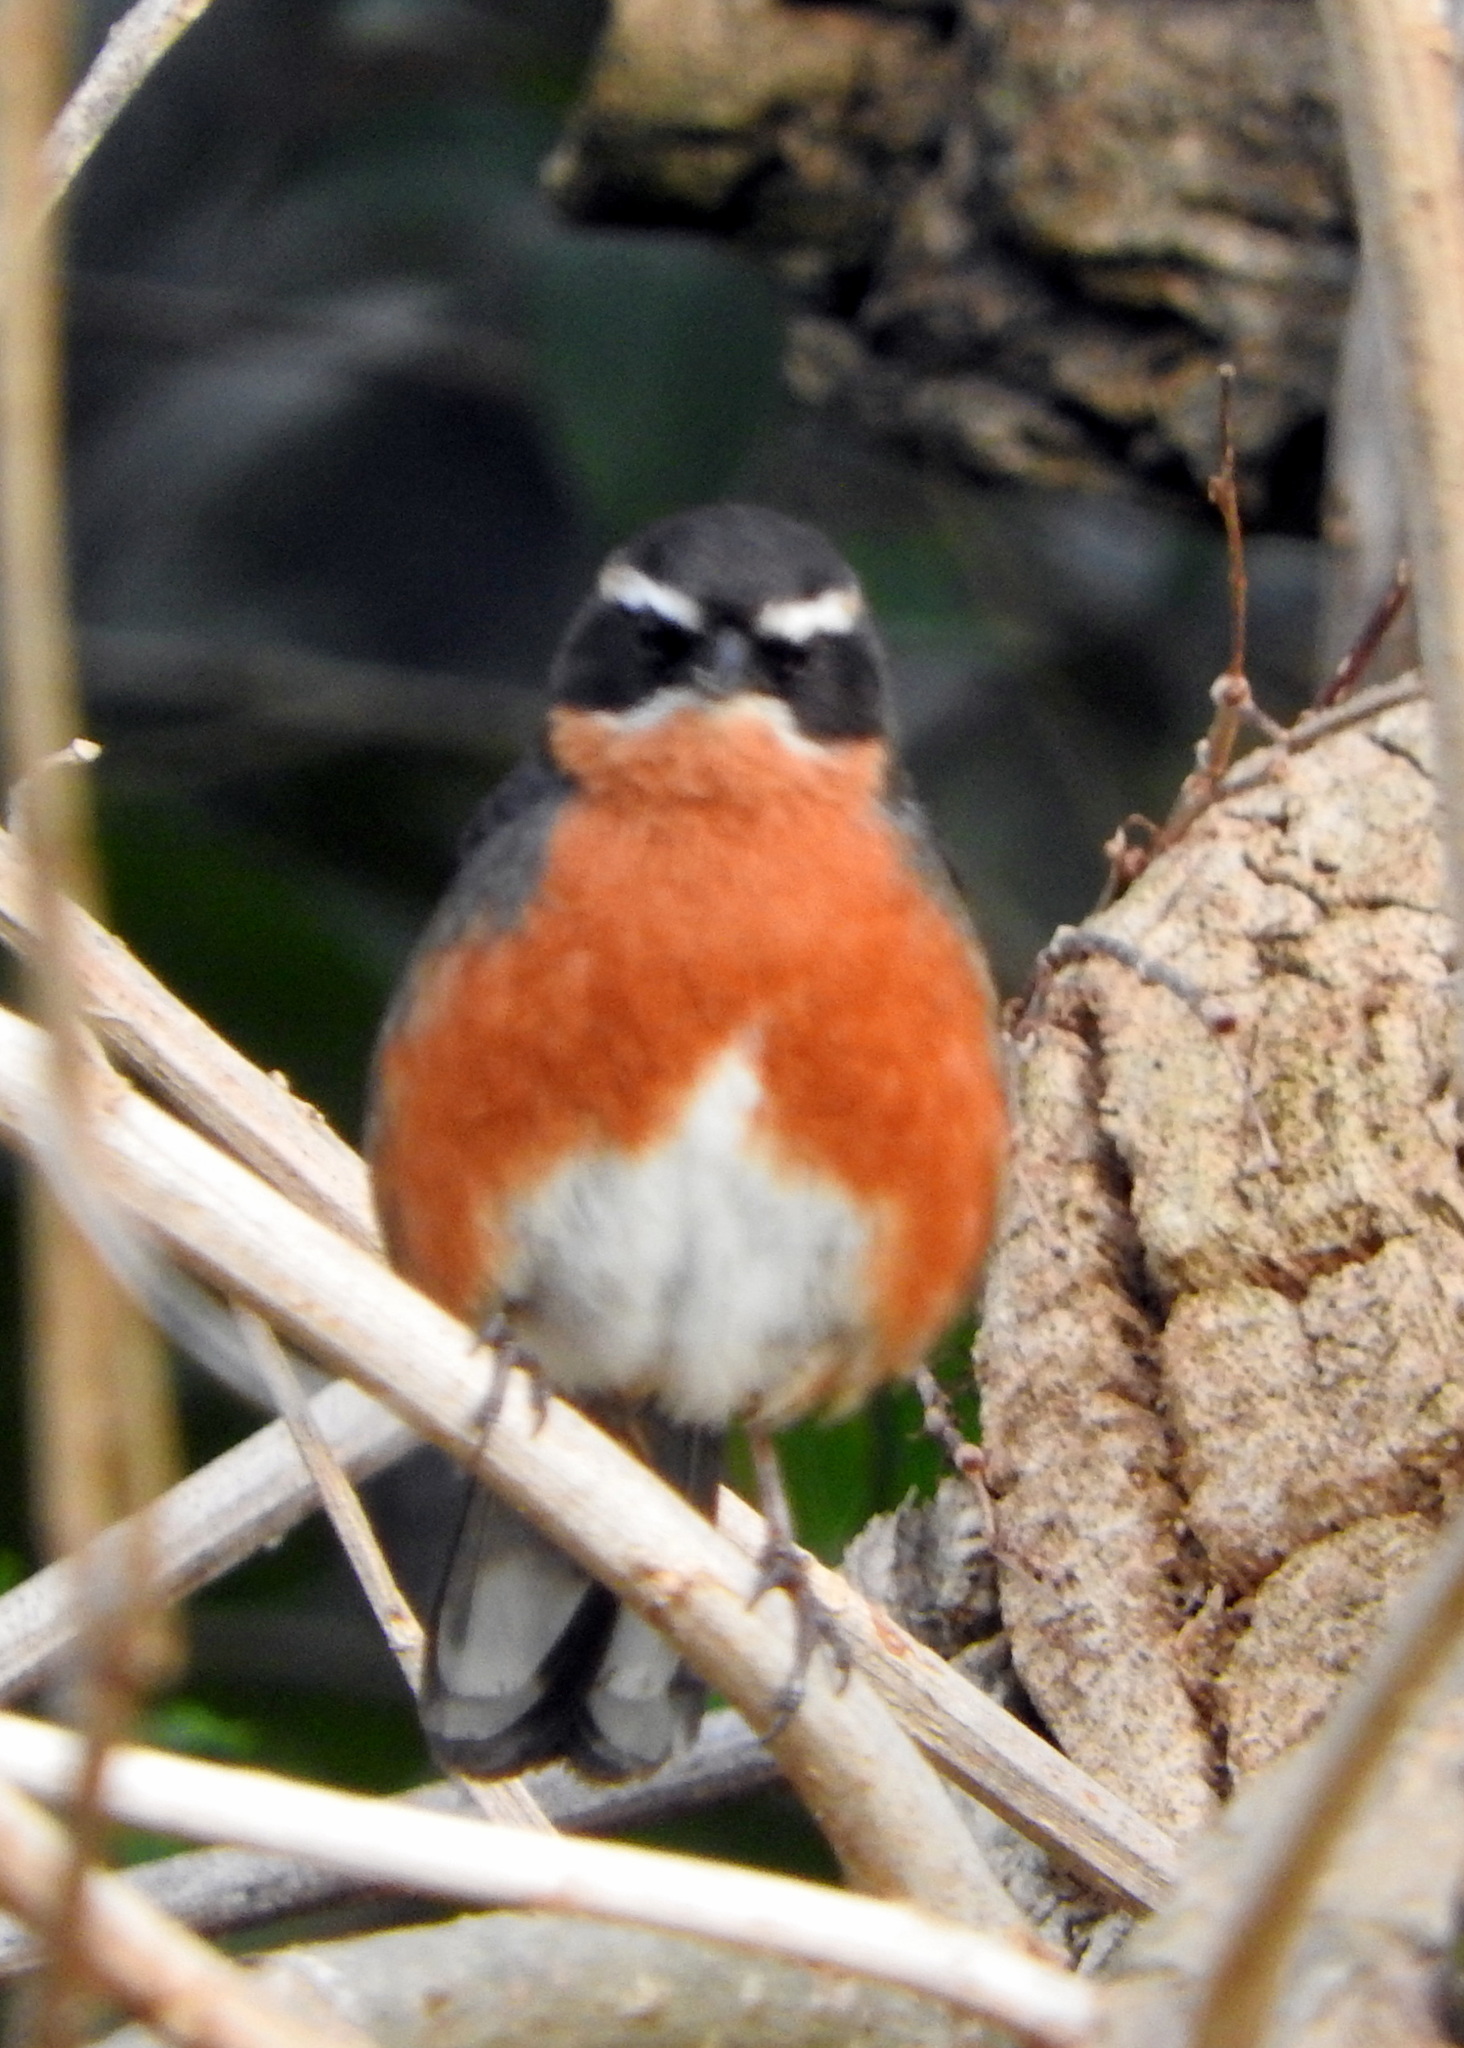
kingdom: Animalia
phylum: Chordata
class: Aves
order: Passeriformes
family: Thraupidae
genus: Poospiza
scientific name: Poospiza nigrorufa
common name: Black-and-rufous warbling finch
